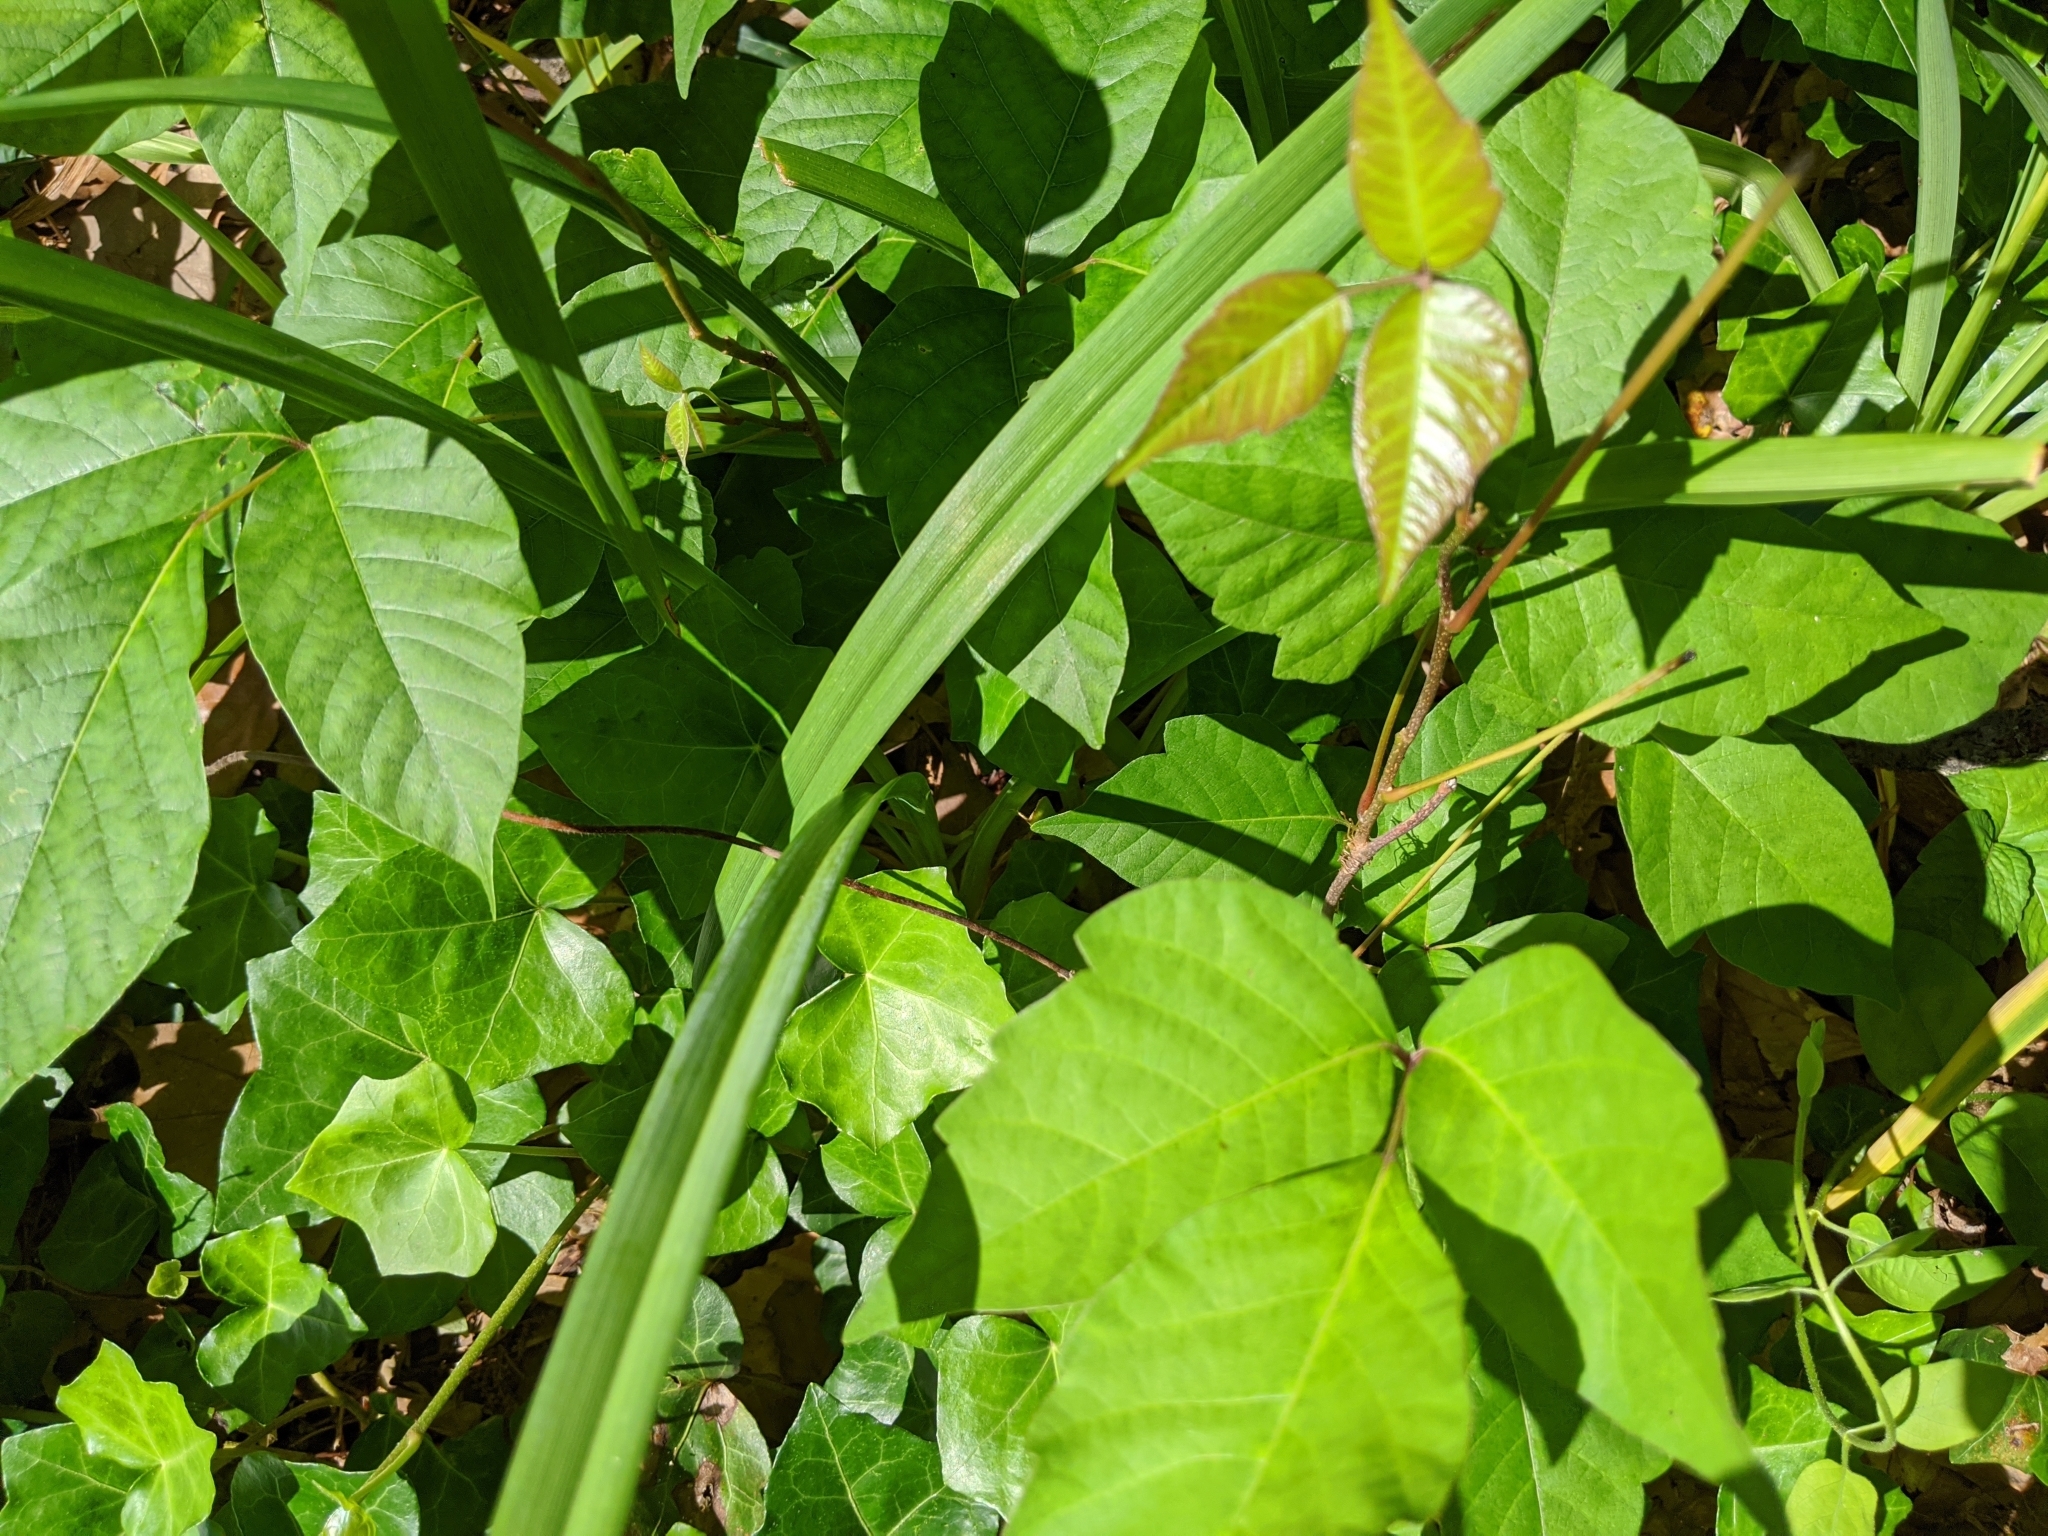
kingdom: Plantae
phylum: Tracheophyta
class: Magnoliopsida
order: Sapindales
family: Anacardiaceae
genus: Toxicodendron
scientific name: Toxicodendron radicans
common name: Poison ivy
